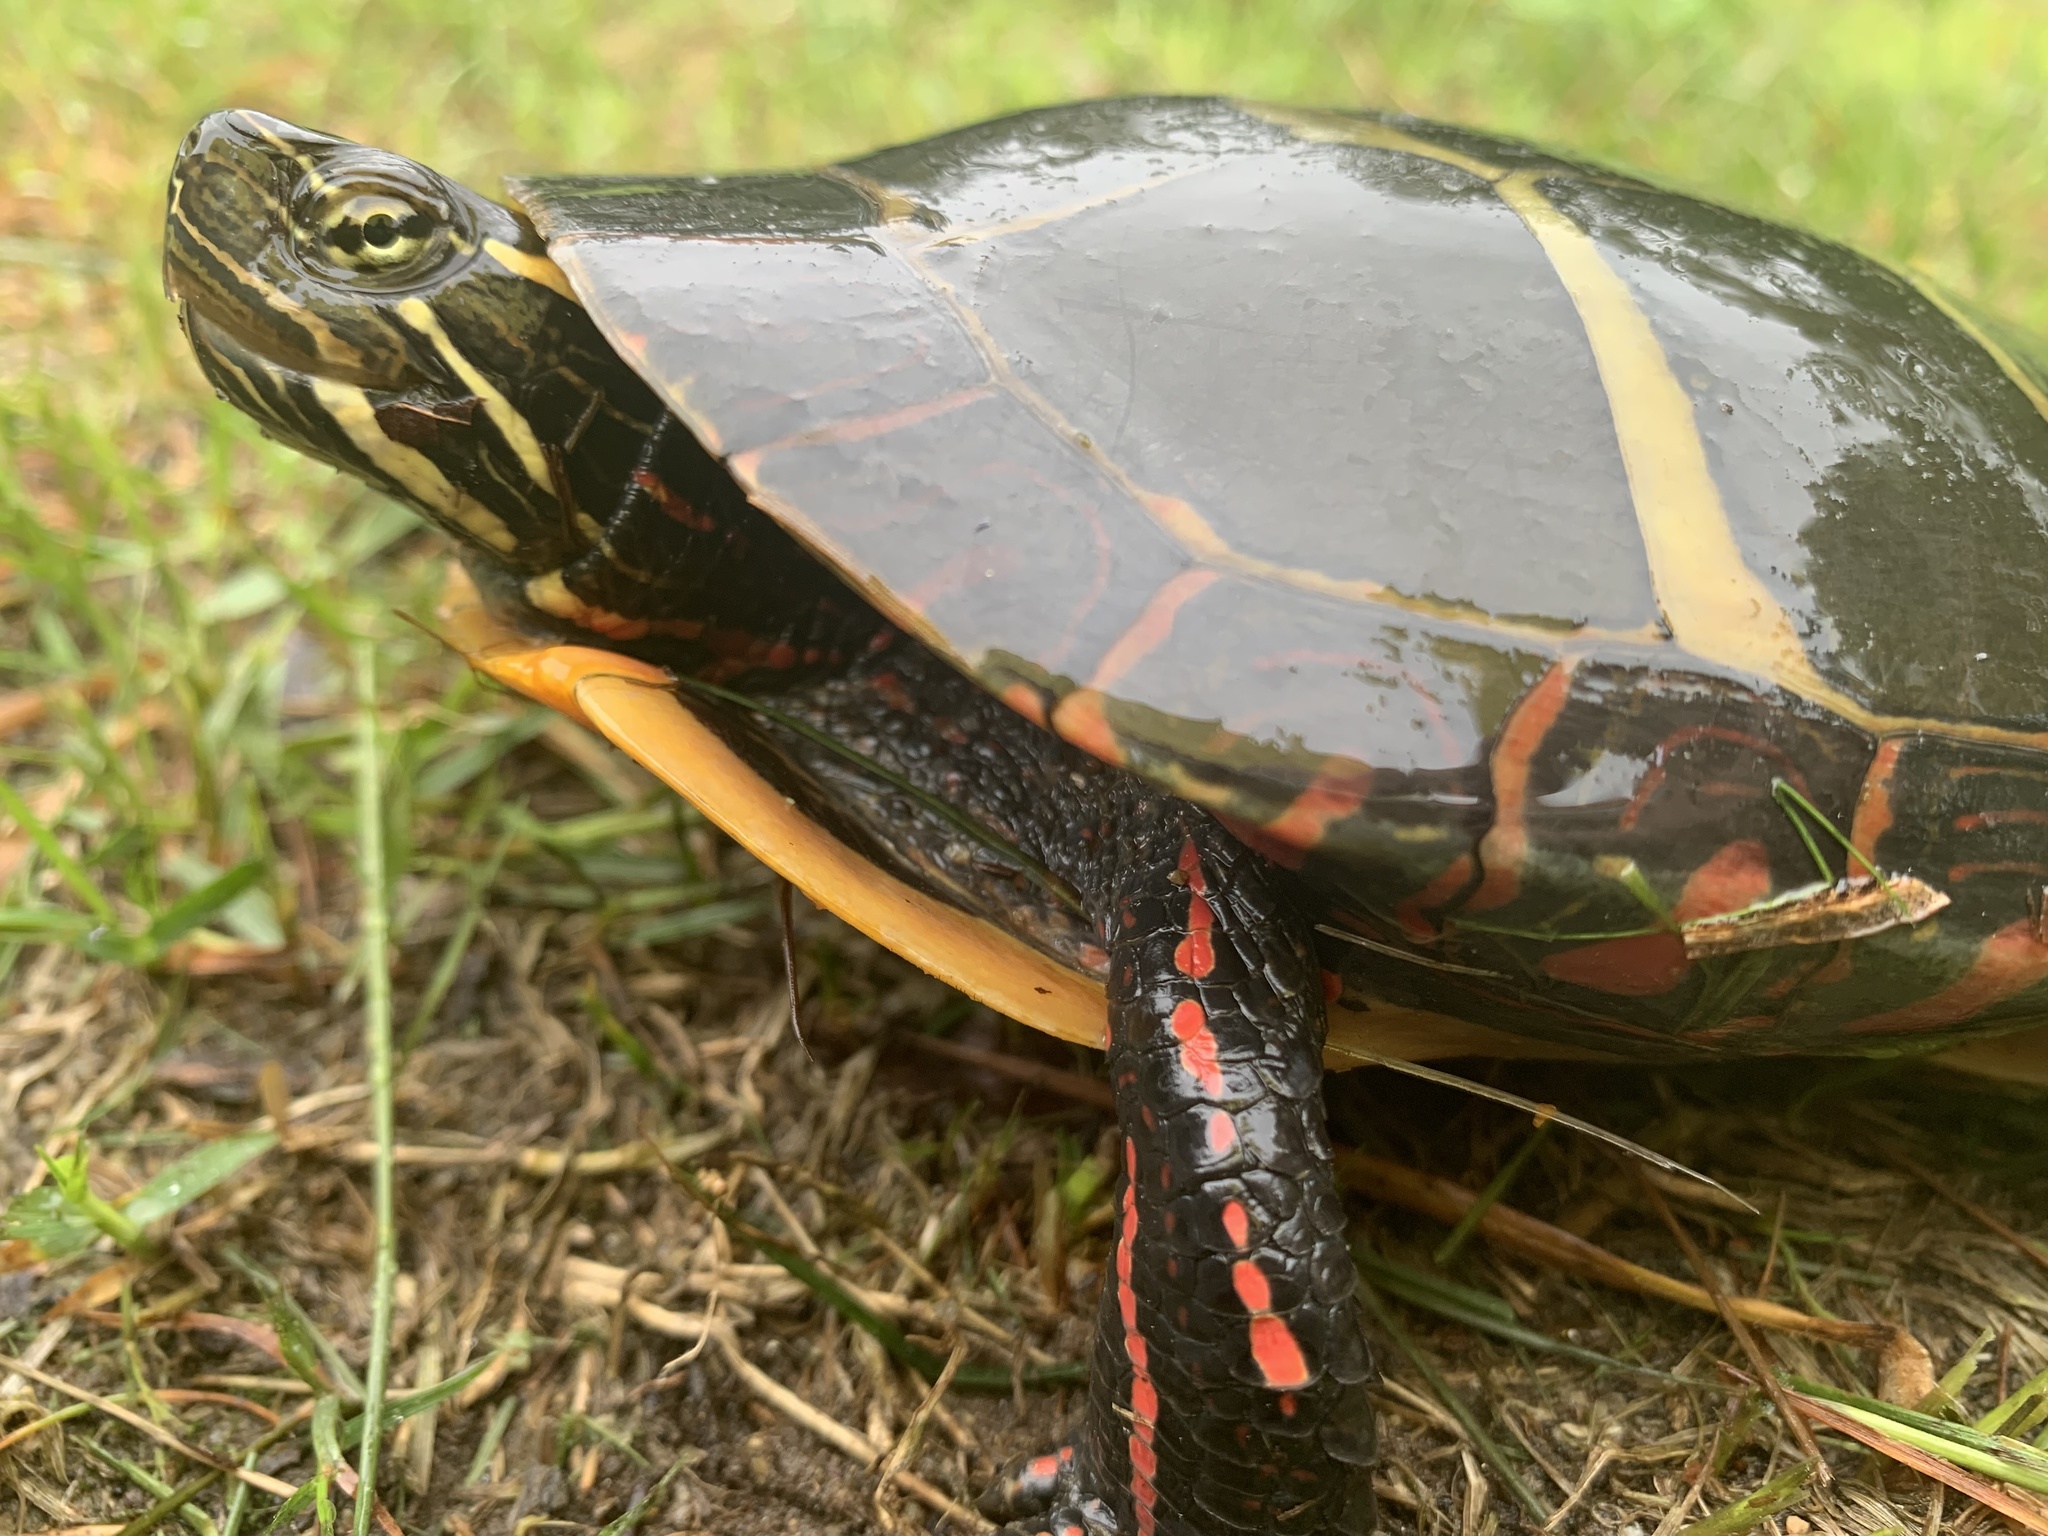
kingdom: Animalia
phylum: Chordata
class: Testudines
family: Emydidae
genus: Chrysemys
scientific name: Chrysemys picta
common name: Painted turtle
